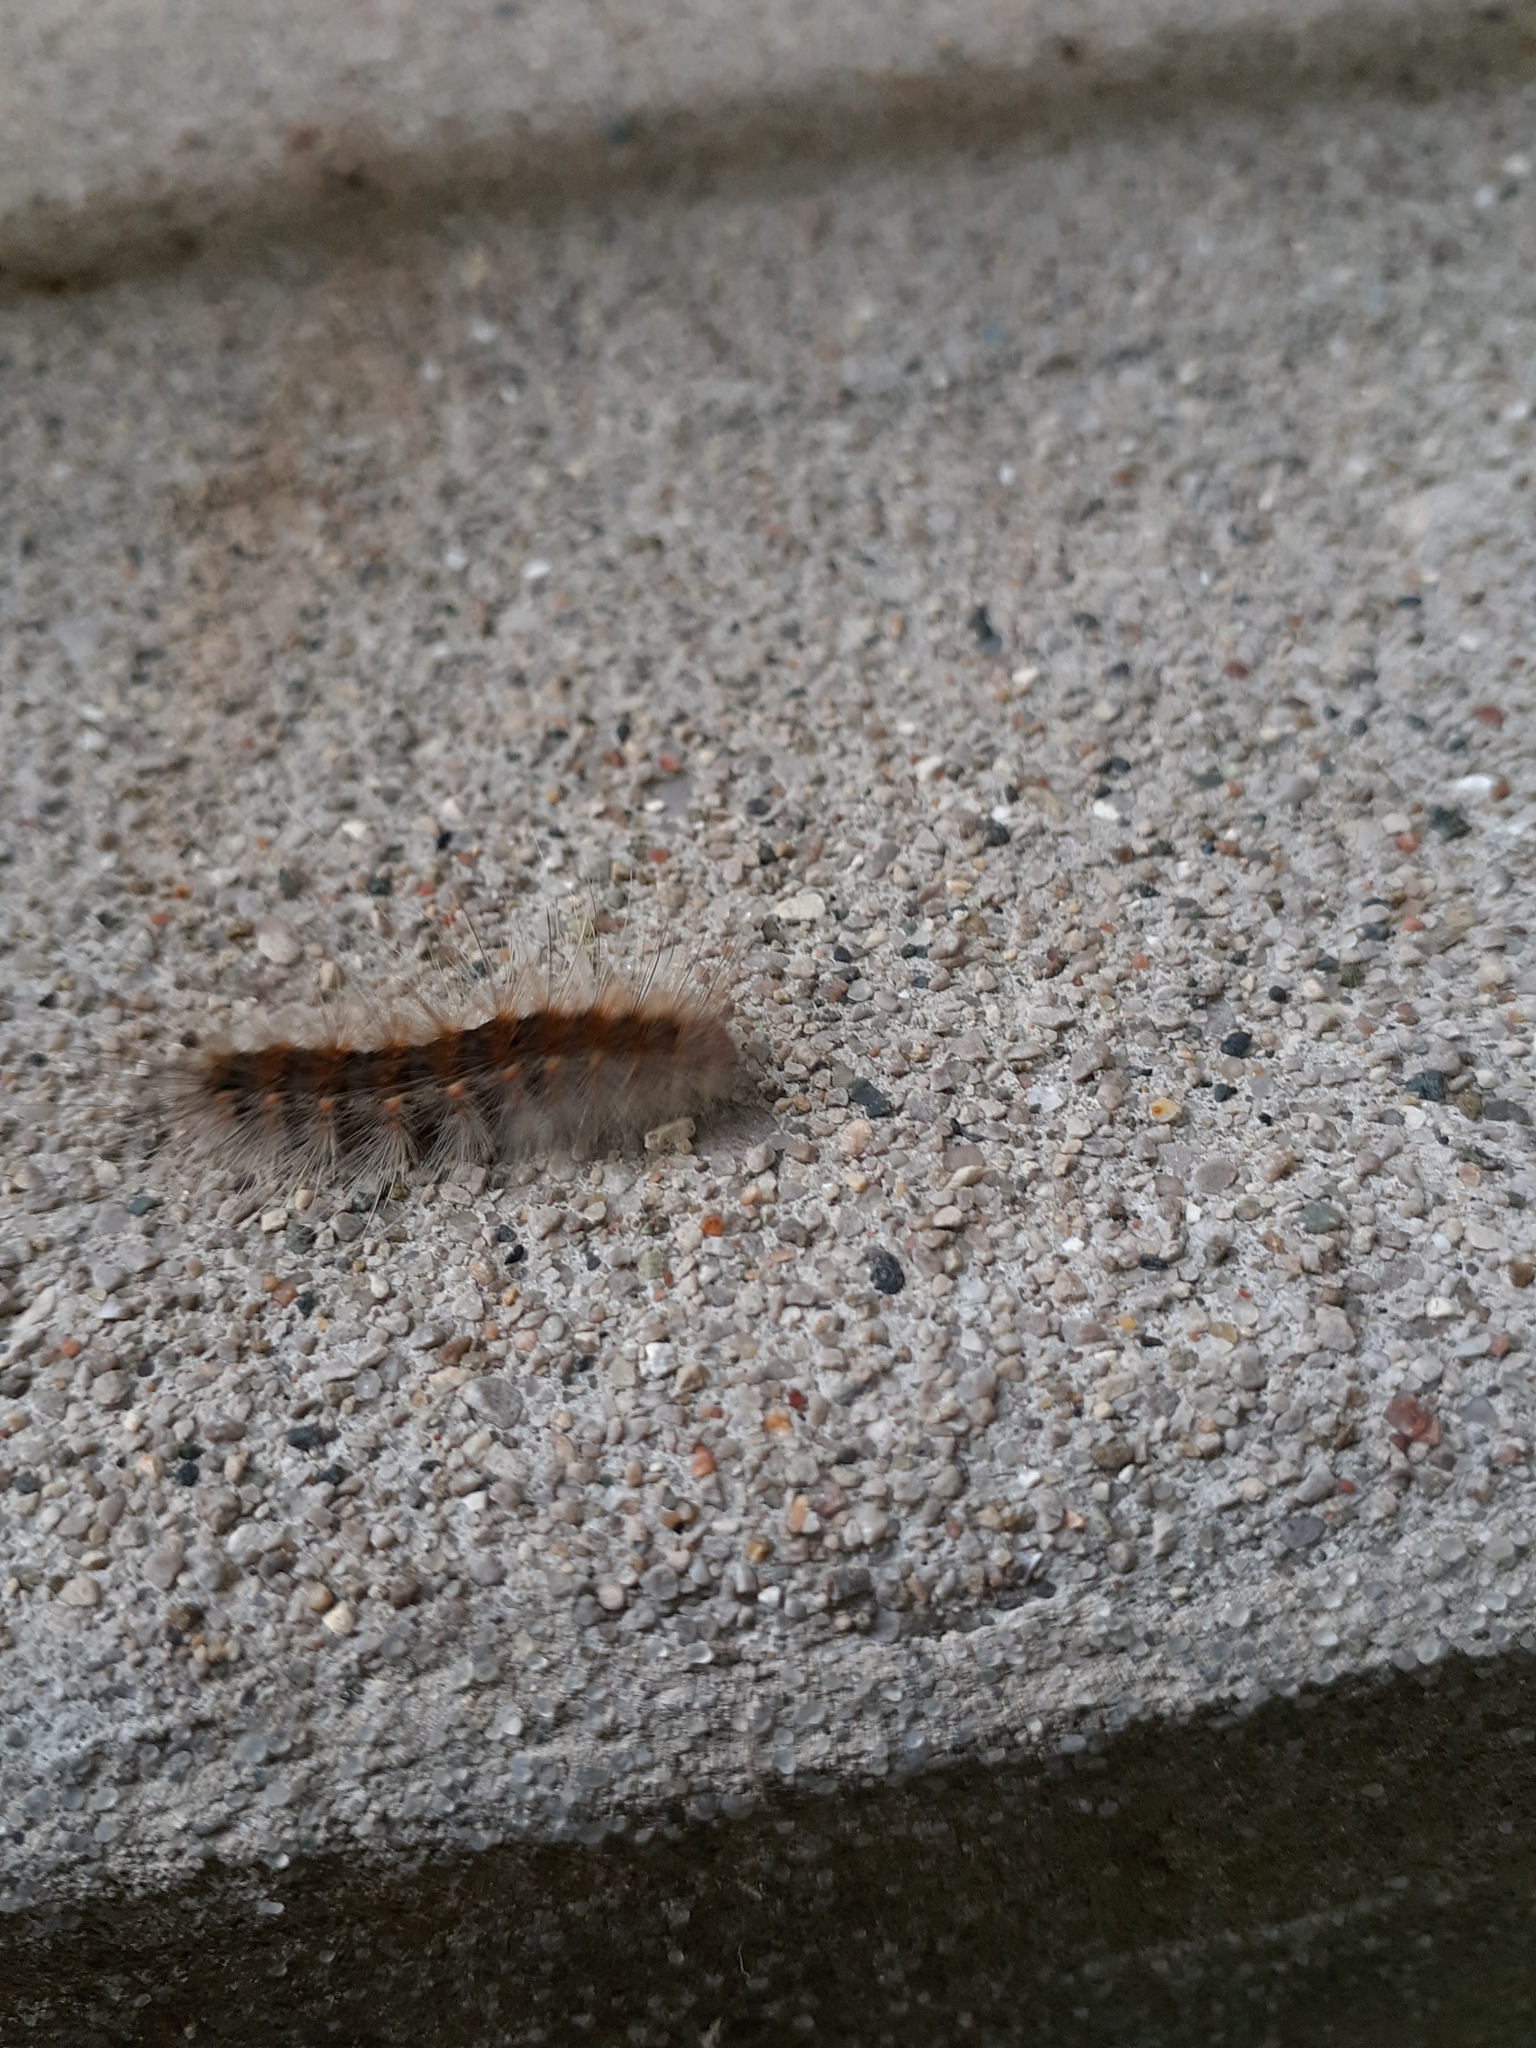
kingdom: Animalia
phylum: Arthropoda
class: Insecta
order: Lepidoptera
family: Erebidae
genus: Hyphantria
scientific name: Hyphantria cunea
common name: American white moth
